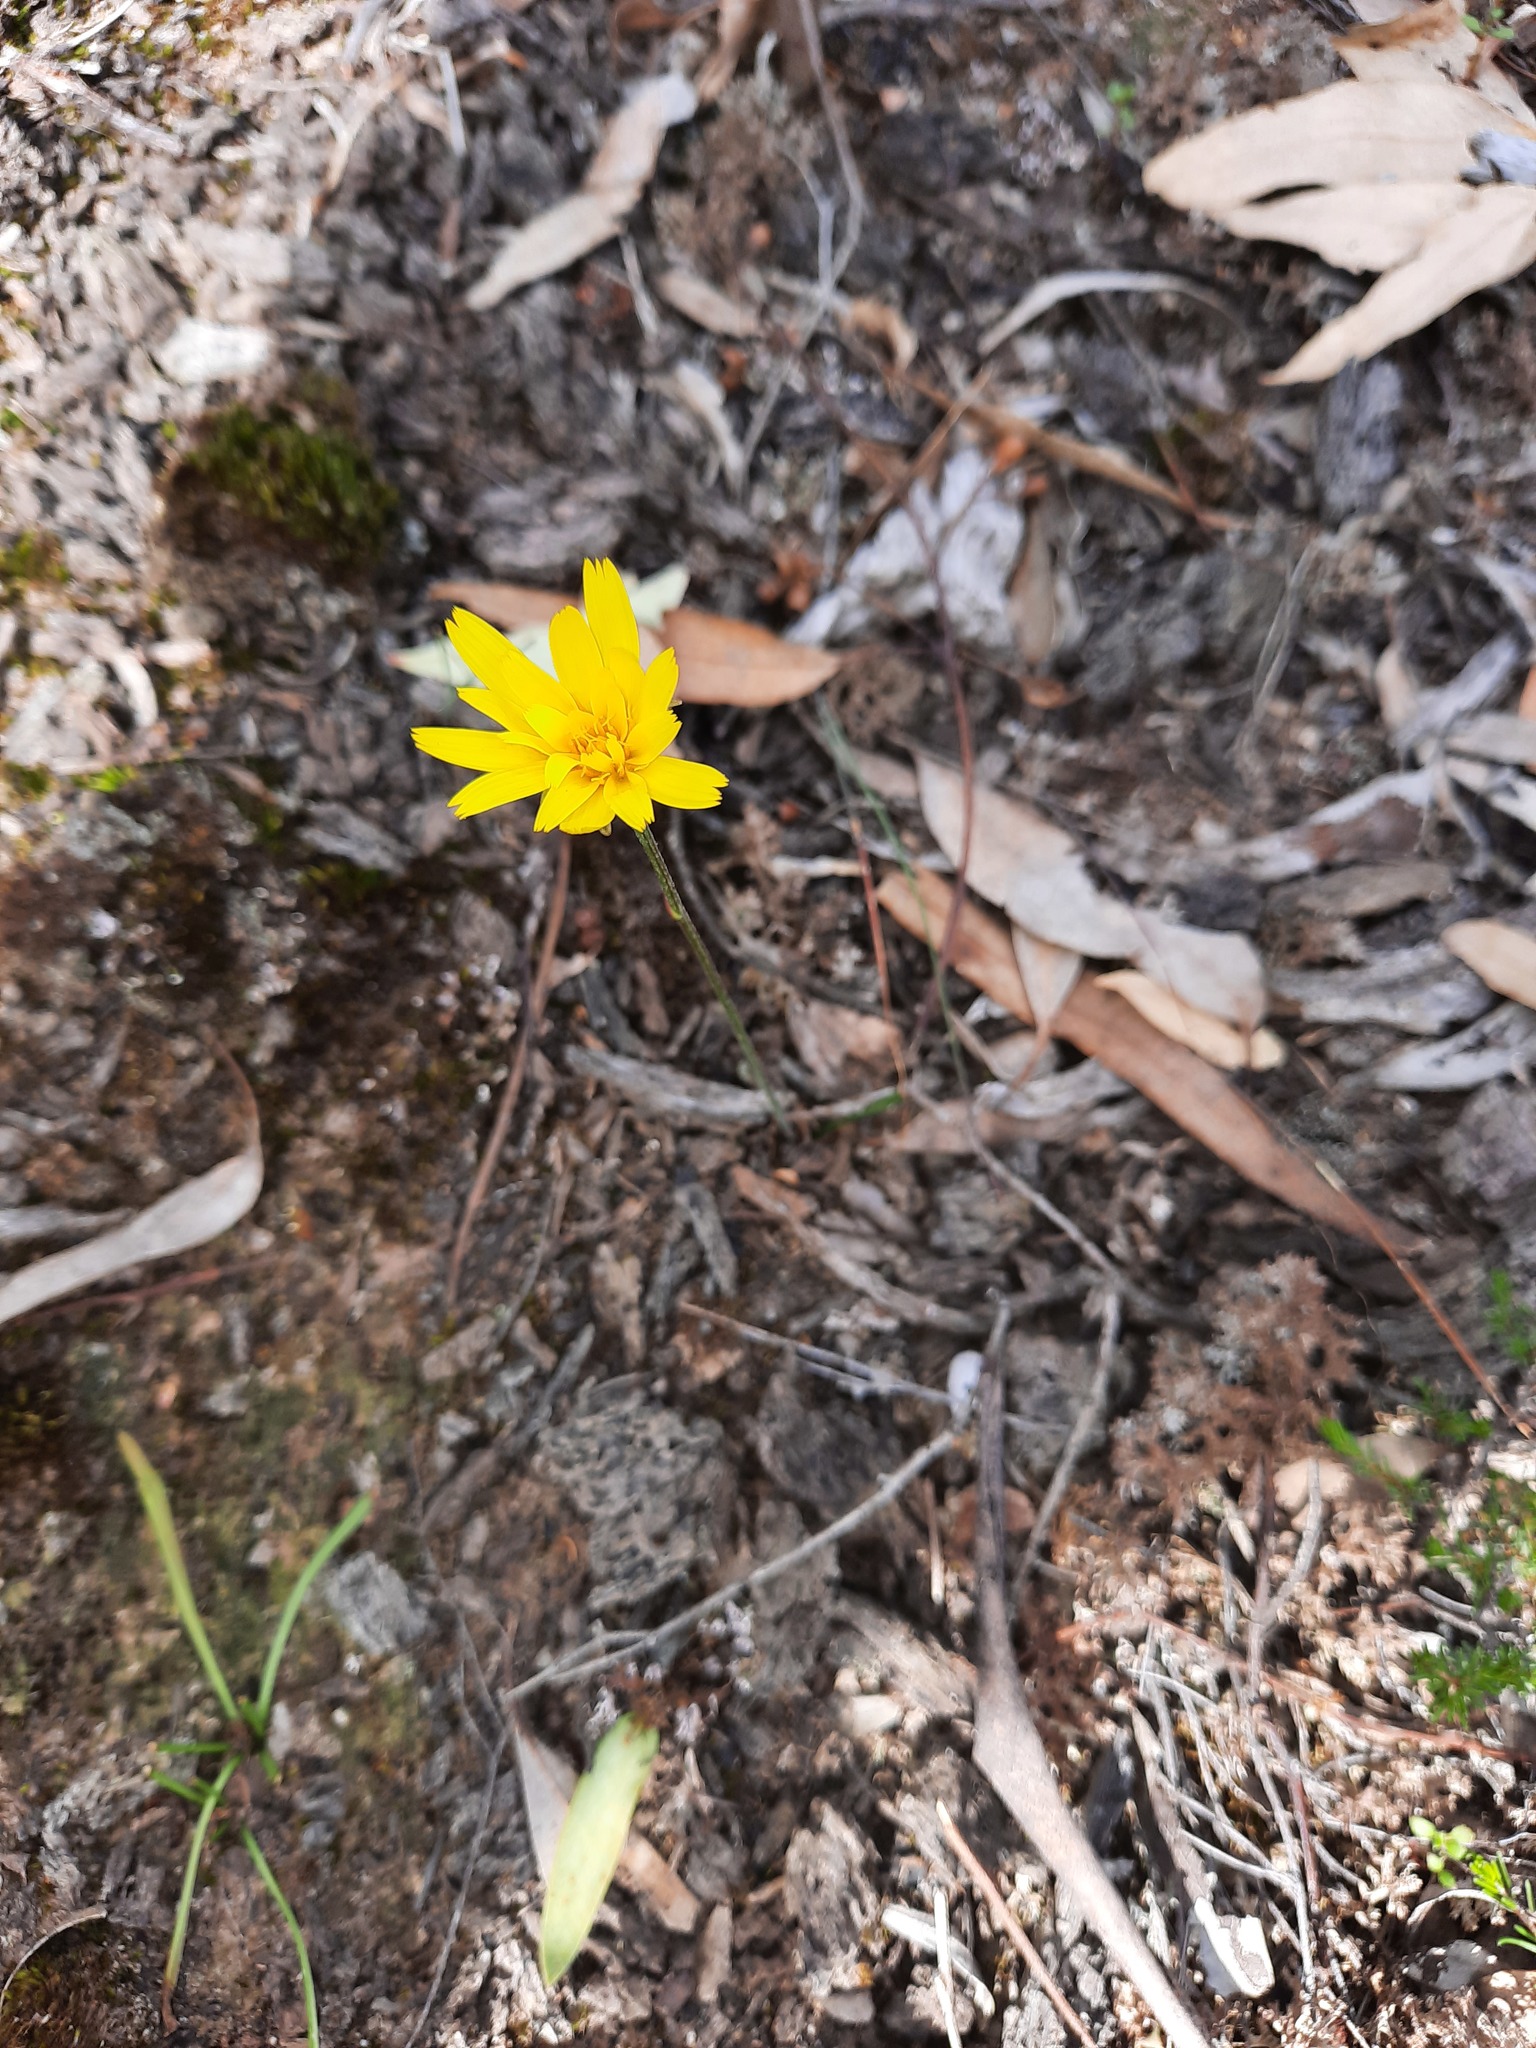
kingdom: Plantae
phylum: Tracheophyta
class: Magnoliopsida
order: Asterales
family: Asteraceae
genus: Microseris
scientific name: Microseris lanceolata
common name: Yam daisy
